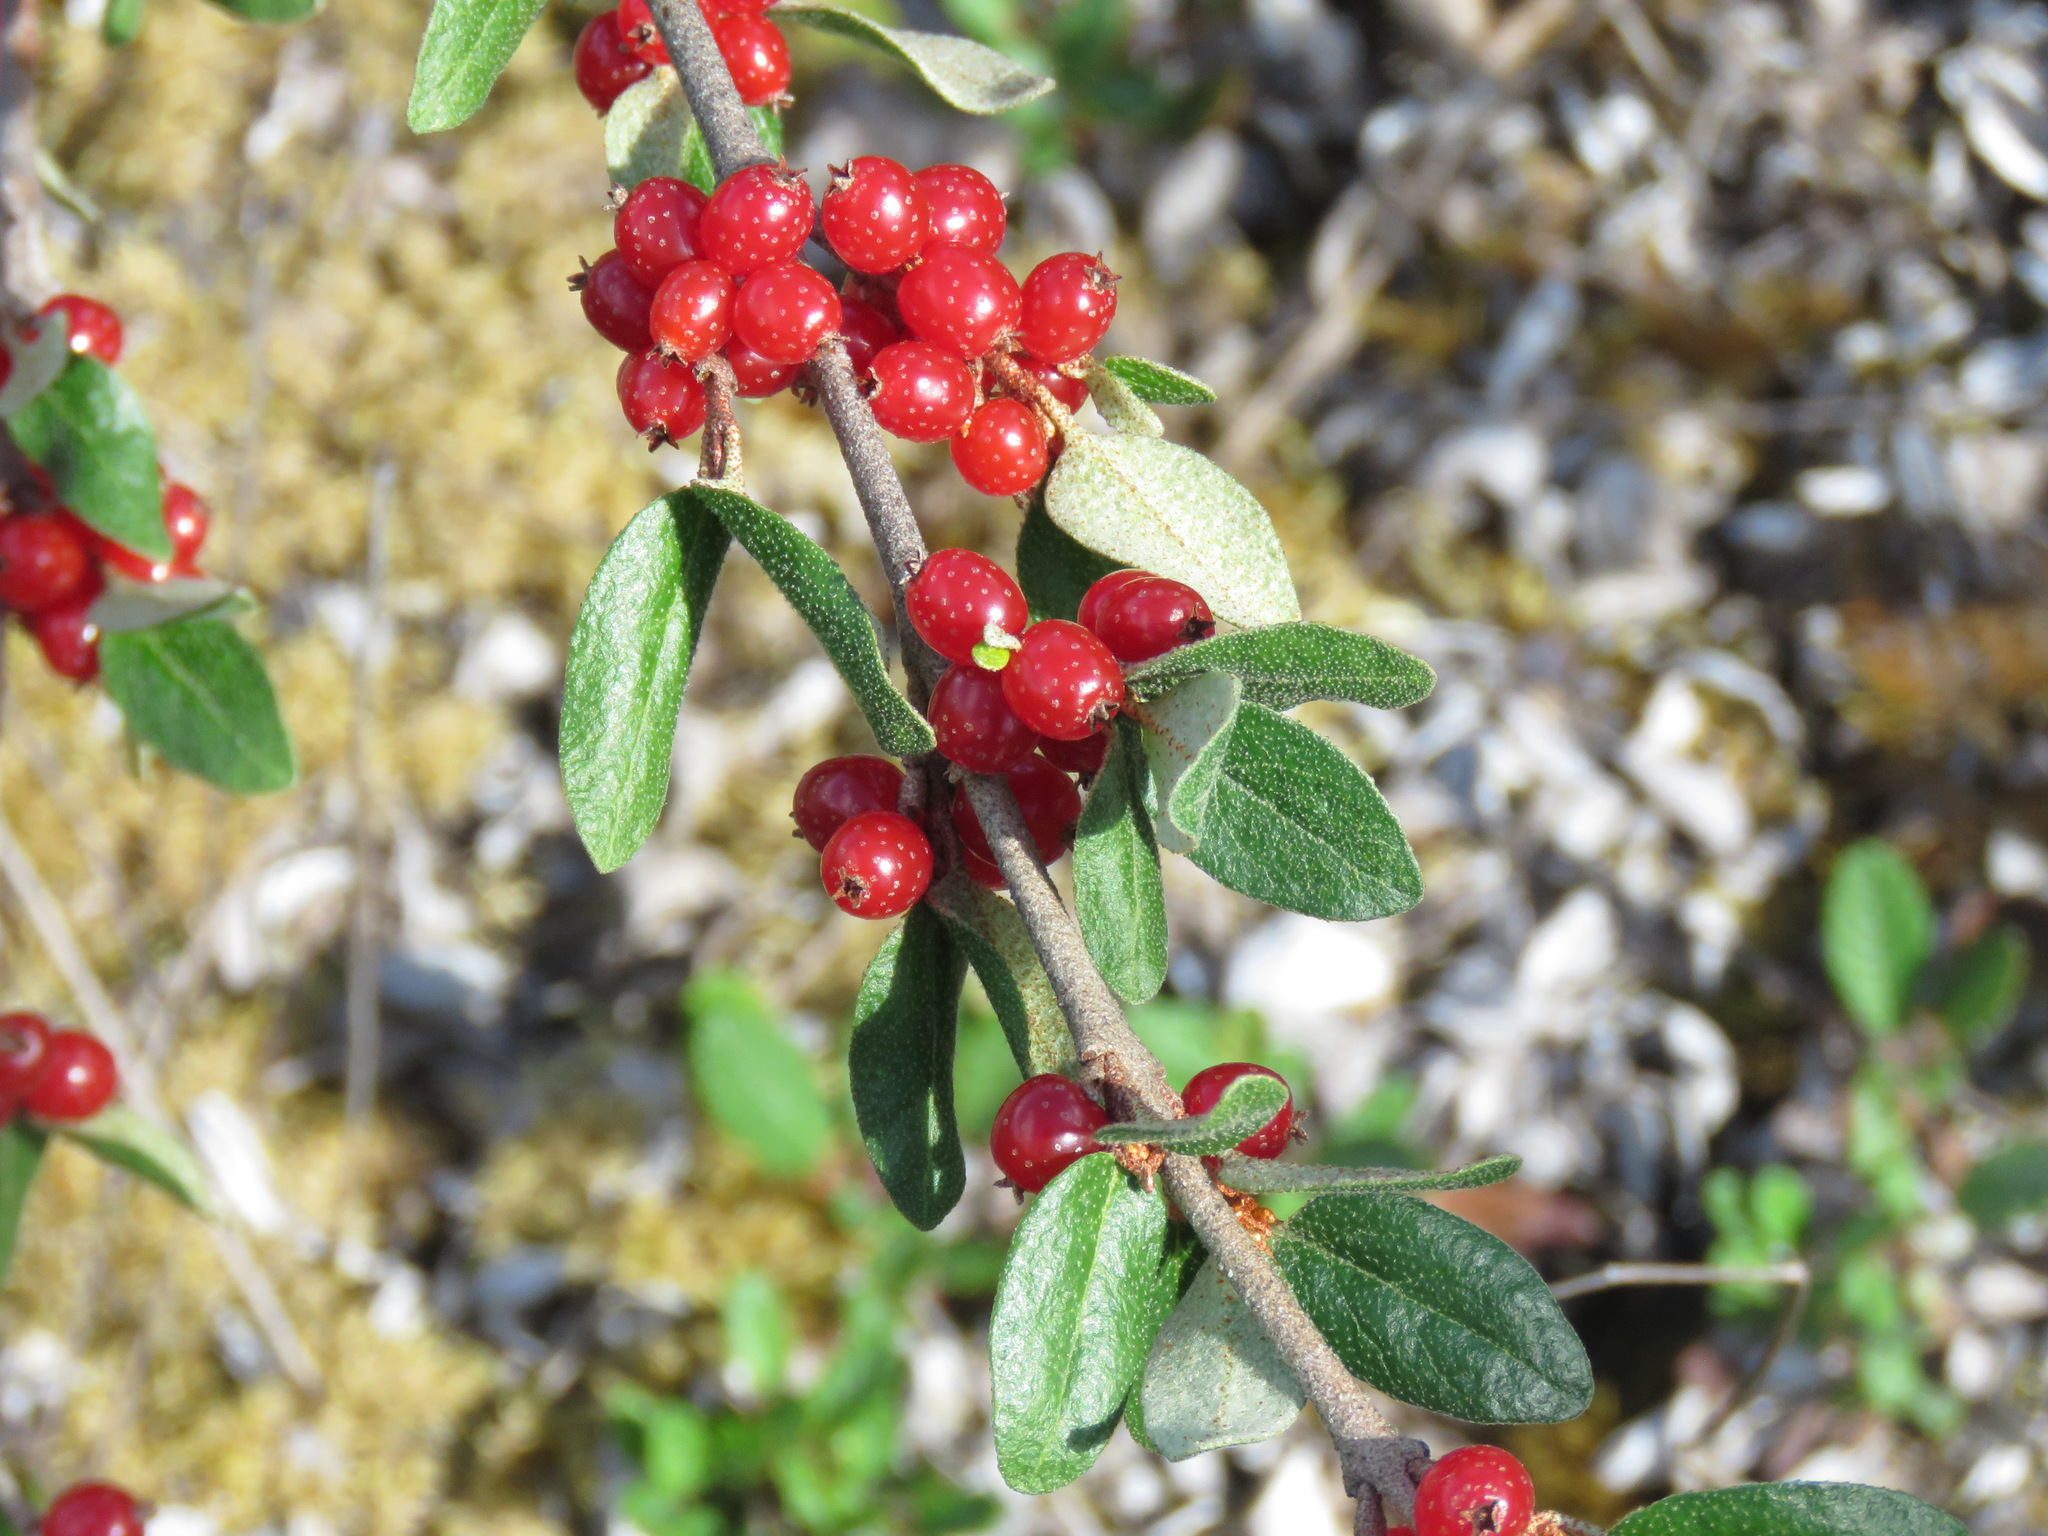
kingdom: Plantae
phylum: Tracheophyta
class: Magnoliopsida
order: Rosales
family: Elaeagnaceae
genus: Shepherdia
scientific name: Shepherdia canadensis
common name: Soapberry
